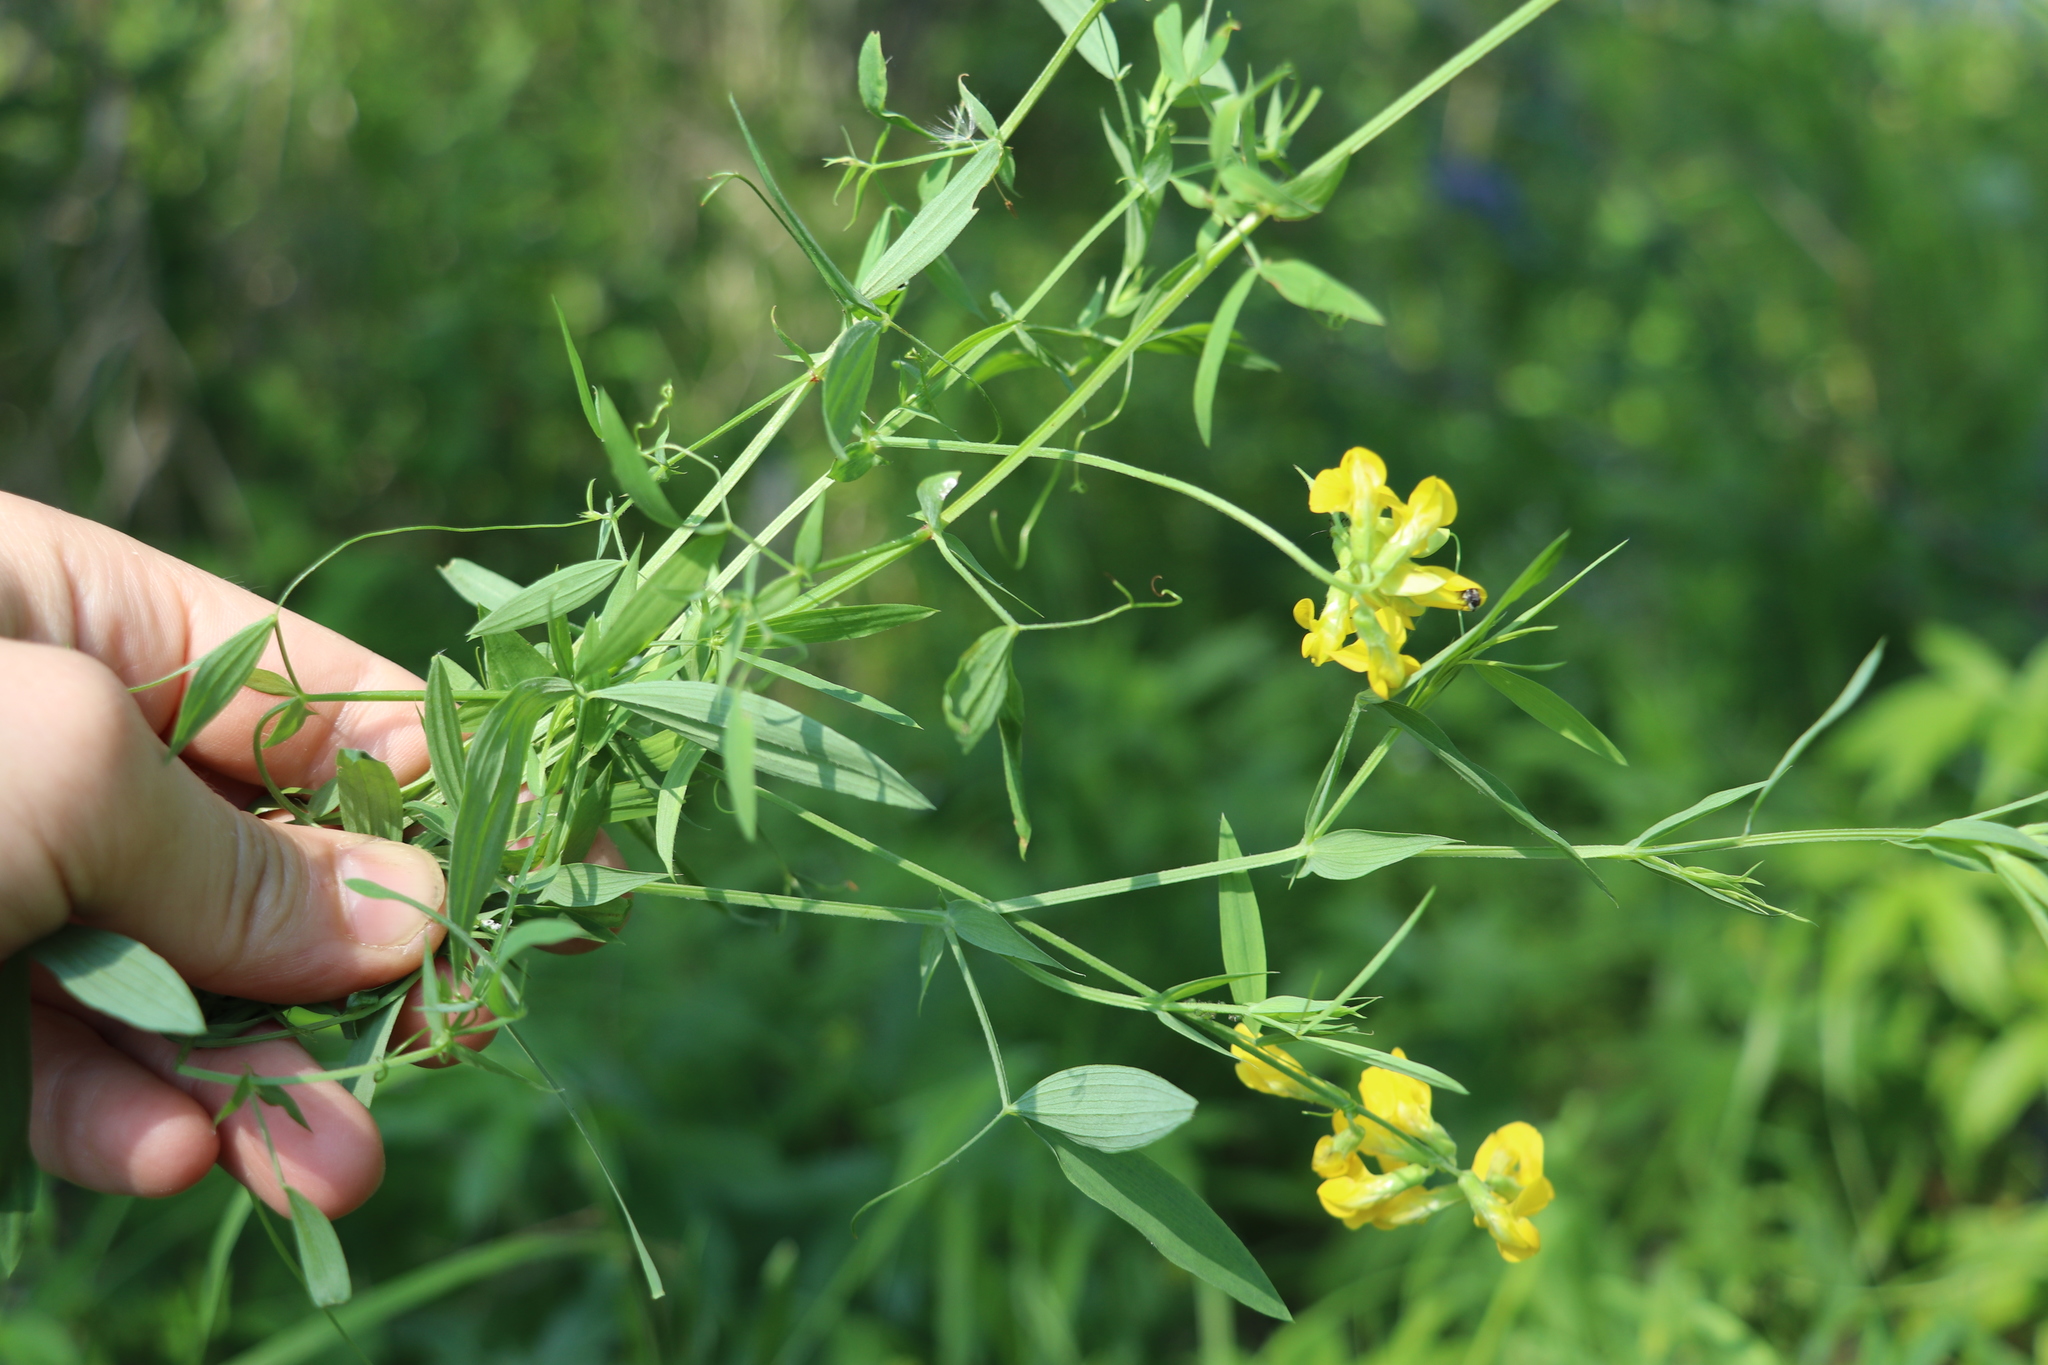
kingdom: Plantae
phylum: Tracheophyta
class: Magnoliopsida
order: Fabales
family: Fabaceae
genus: Lathyrus
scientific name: Lathyrus pratensis
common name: Meadow vetchling
